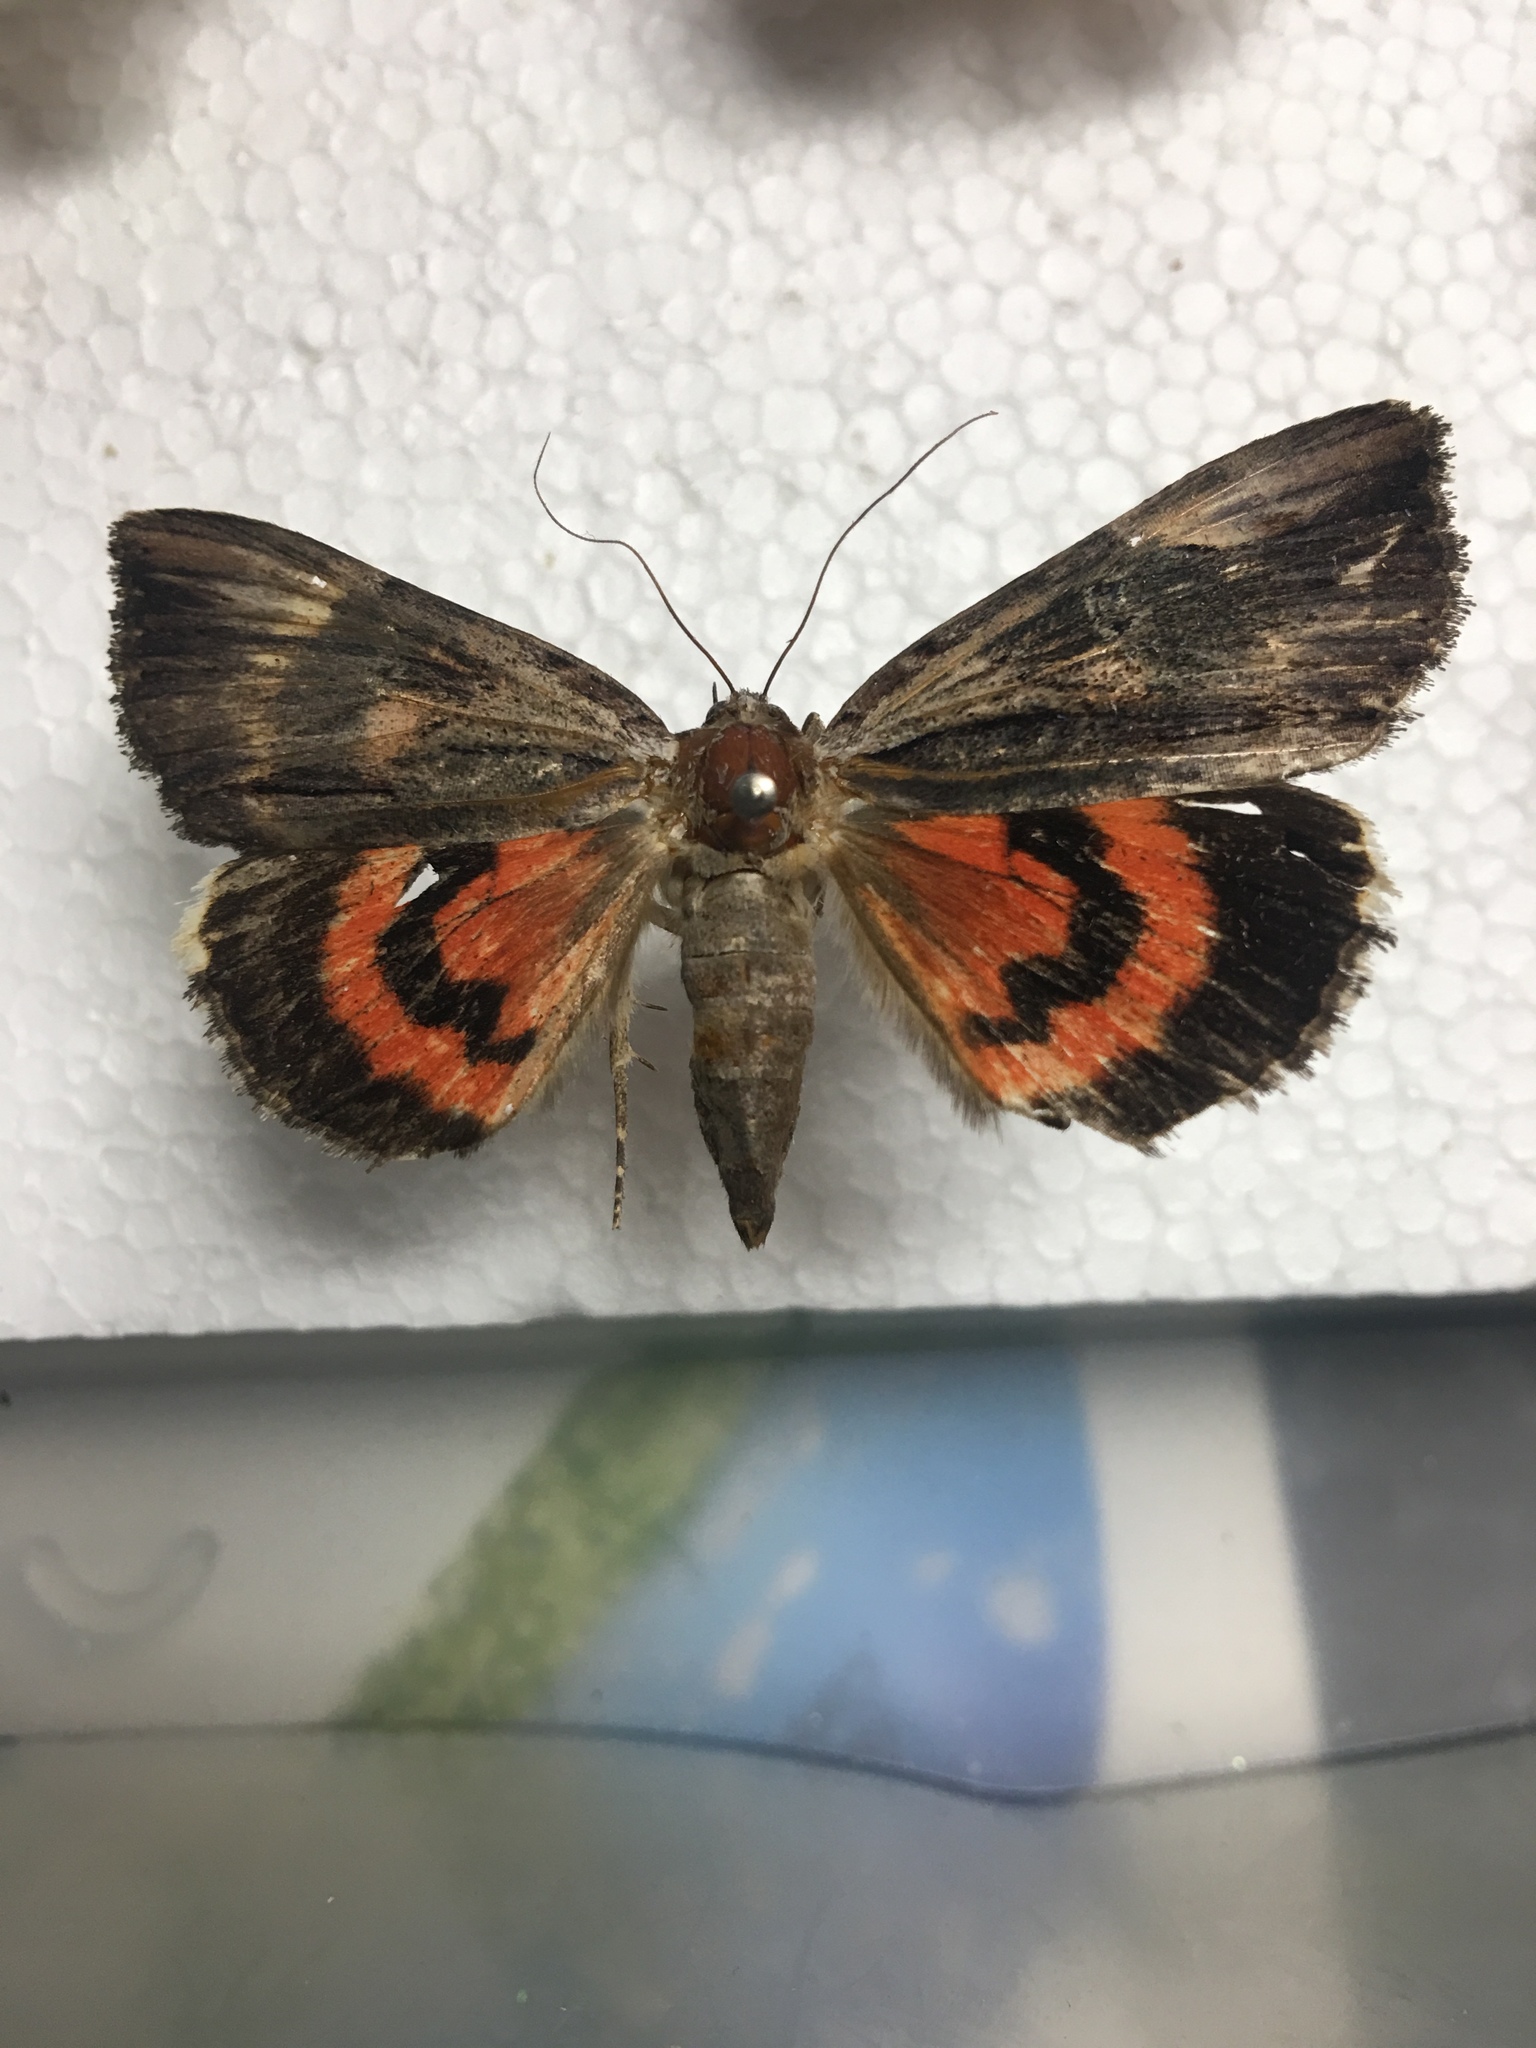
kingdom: Animalia
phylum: Arthropoda
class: Insecta
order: Lepidoptera
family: Erebidae
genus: Catocala
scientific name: Catocala ultronia
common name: Ultronia underwing
